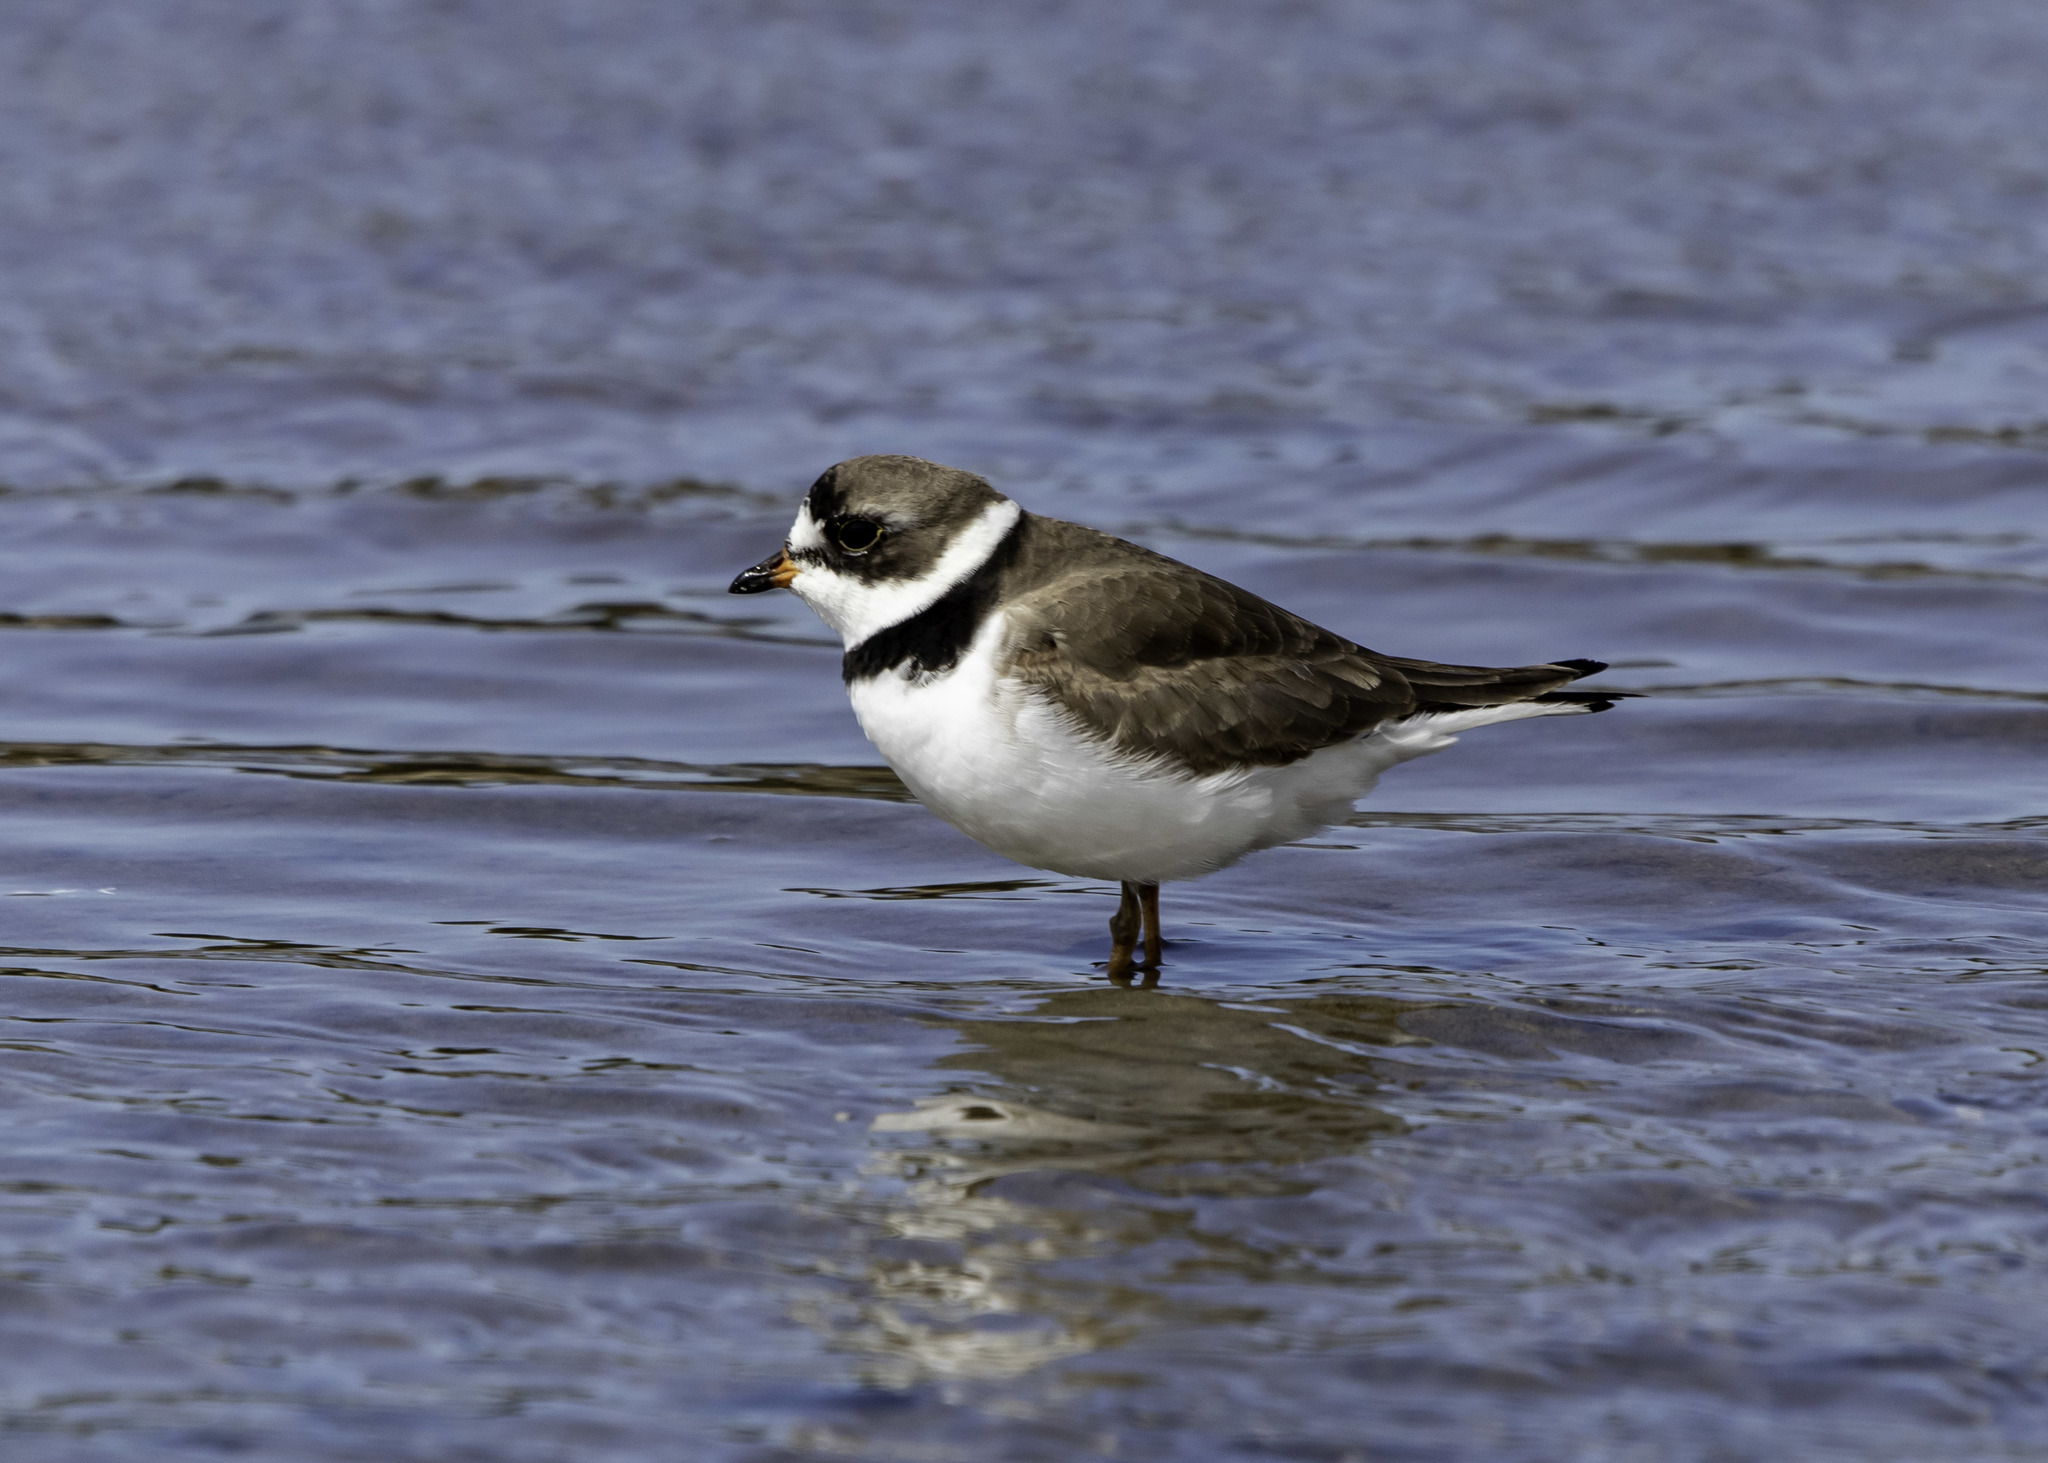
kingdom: Animalia
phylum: Chordata
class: Aves
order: Charadriiformes
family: Charadriidae
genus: Charadrius
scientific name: Charadrius semipalmatus
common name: Semipalmated plover
